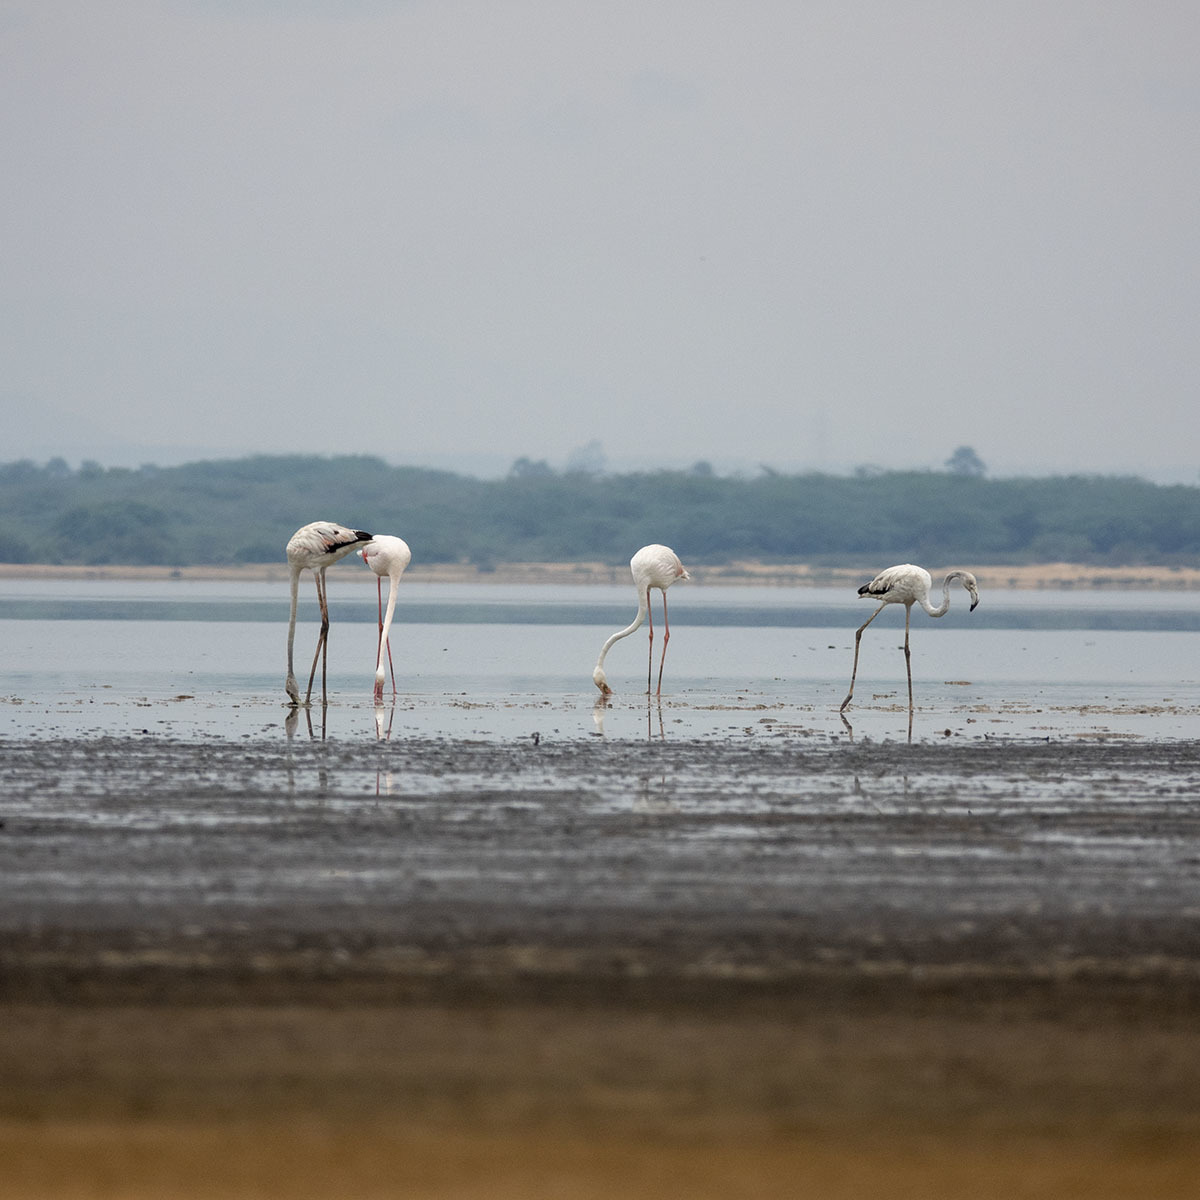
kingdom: Animalia
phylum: Chordata
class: Aves
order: Phoenicopteriformes
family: Phoenicopteridae
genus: Phoenicopterus
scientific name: Phoenicopterus roseus
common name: Greater flamingo
